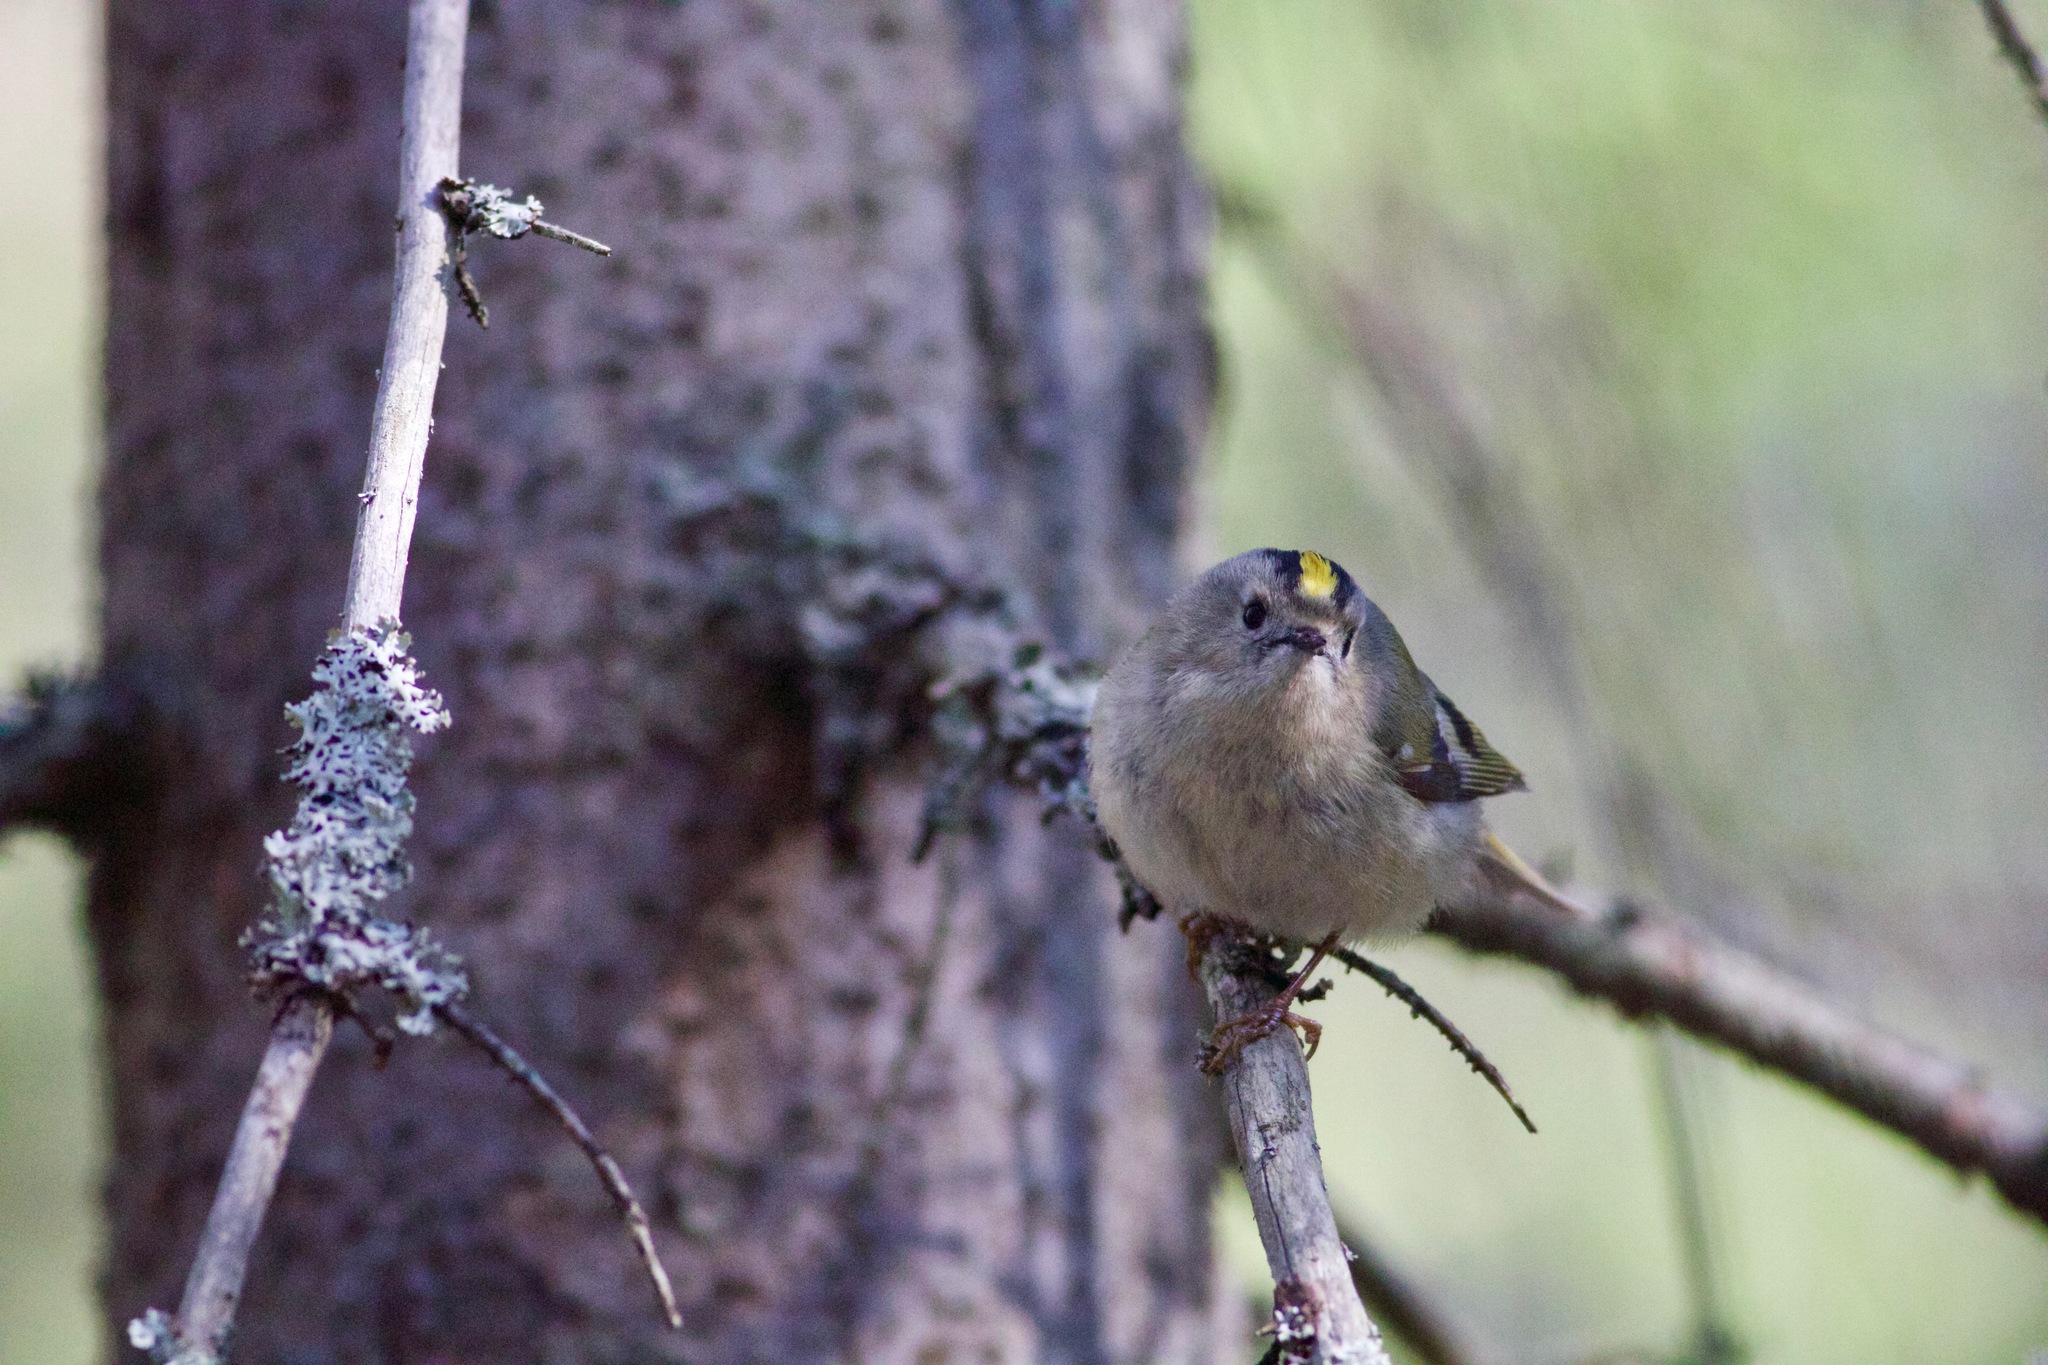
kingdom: Animalia
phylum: Chordata
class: Aves
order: Passeriformes
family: Regulidae
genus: Regulus
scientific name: Regulus regulus
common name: Goldcrest
